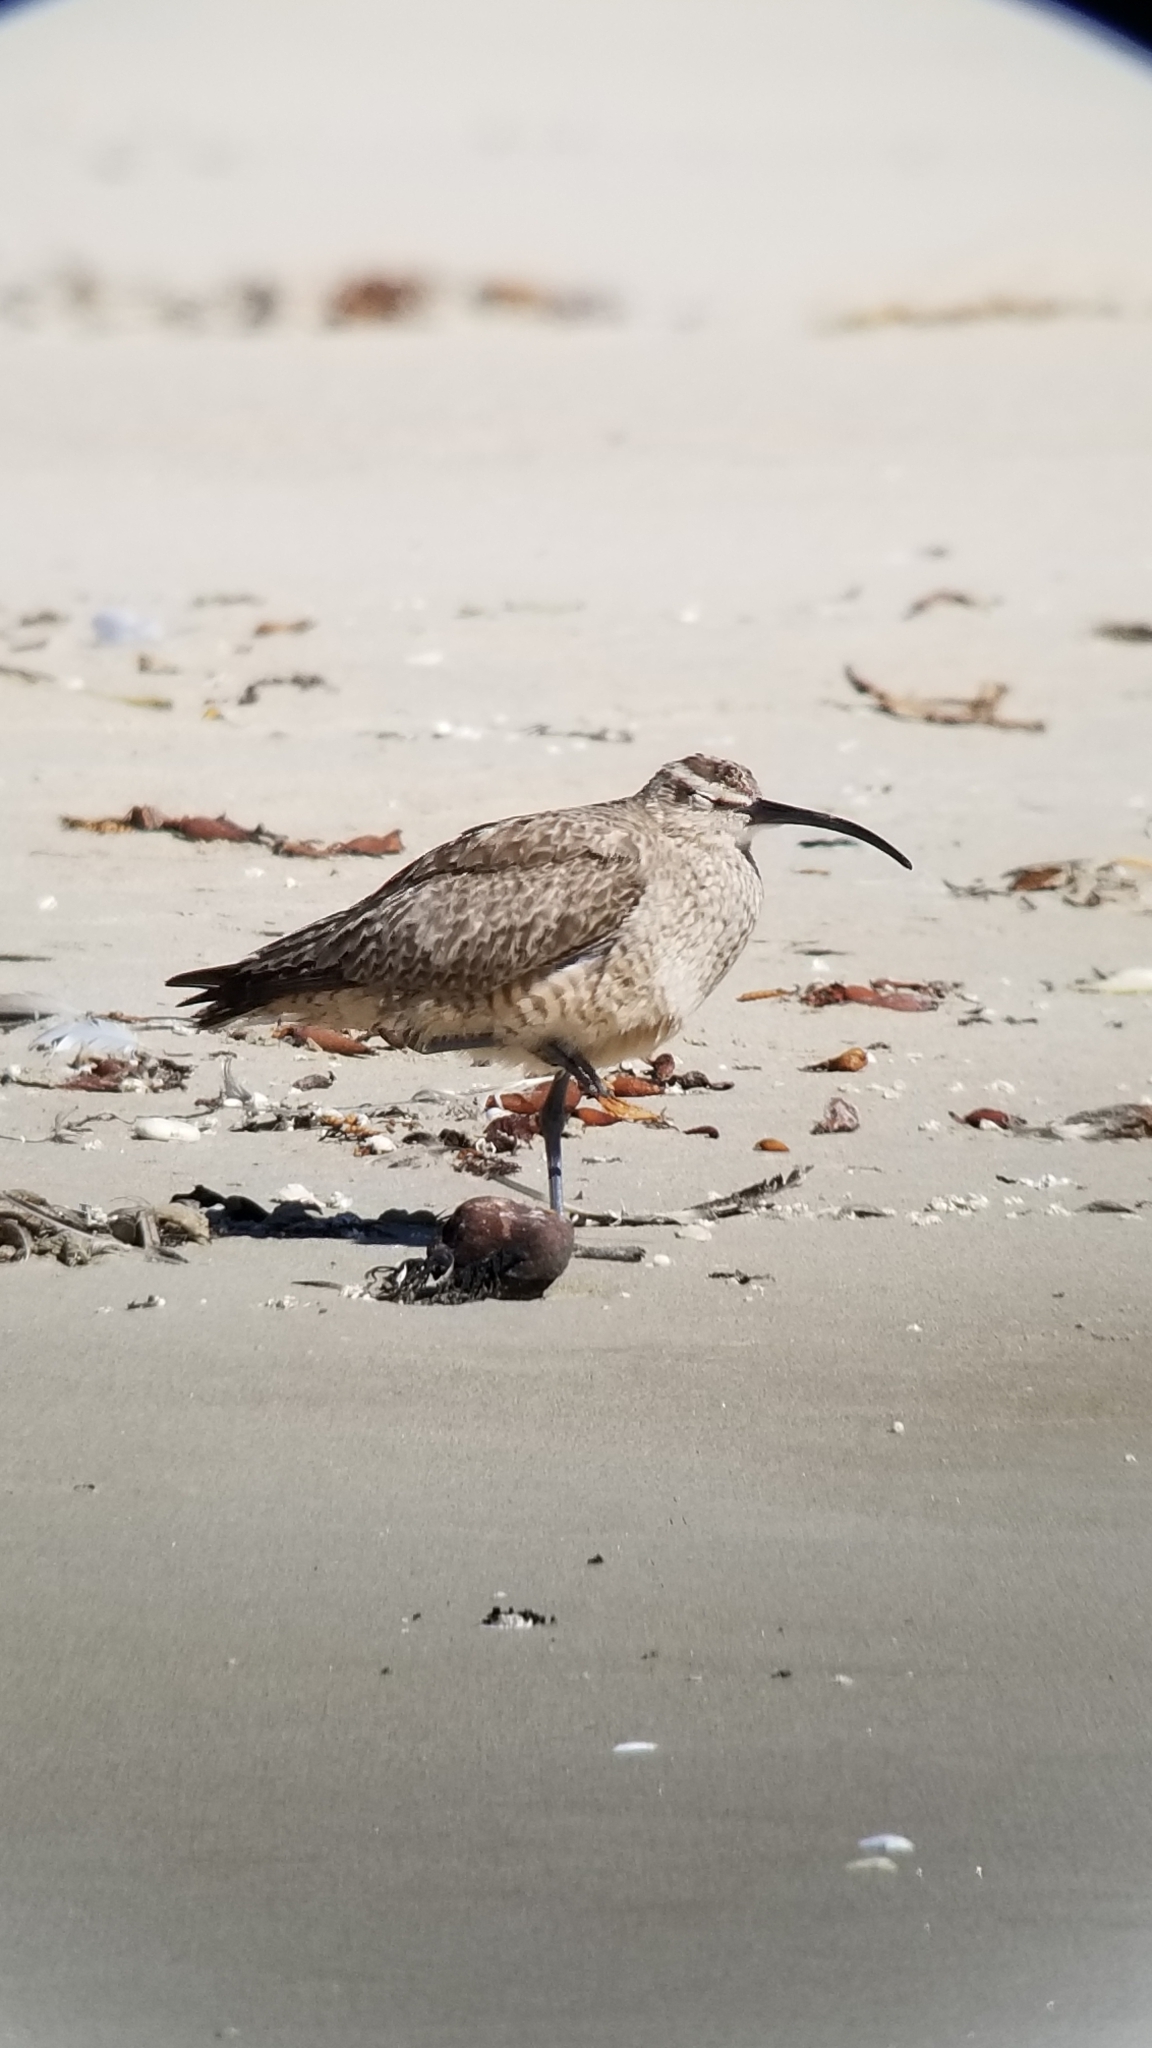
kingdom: Animalia
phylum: Chordata
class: Aves
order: Charadriiformes
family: Scolopacidae
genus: Numenius
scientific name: Numenius phaeopus
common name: Whimbrel
